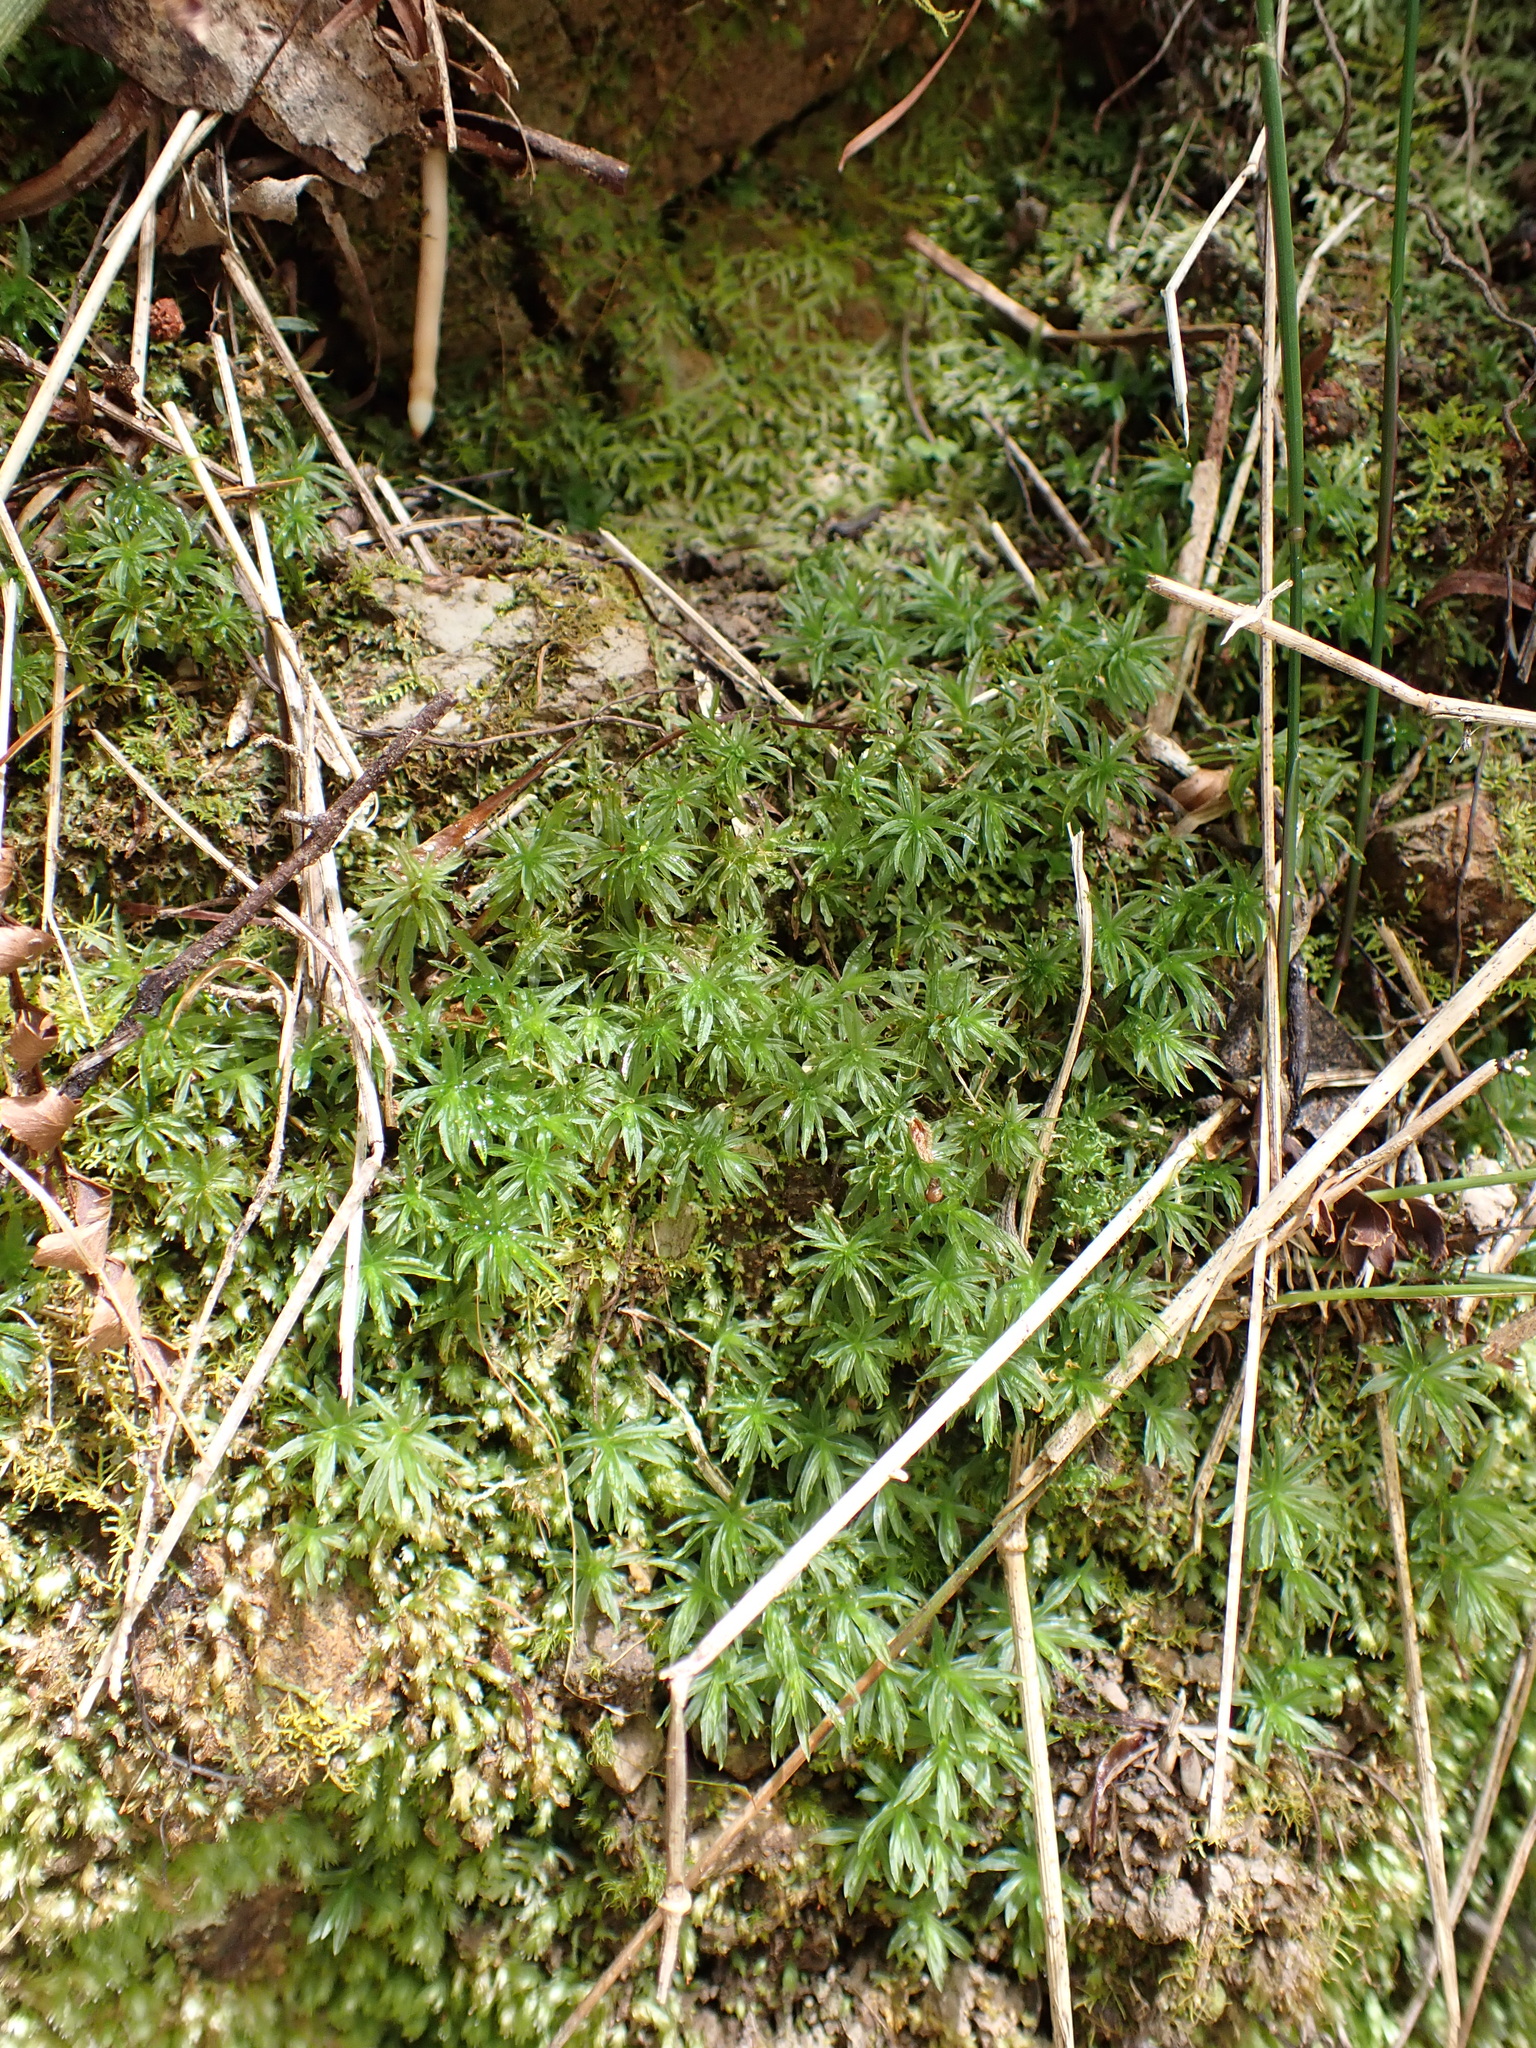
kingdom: Plantae
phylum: Bryophyta
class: Polytrichopsida
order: Polytrichales
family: Polytrichaceae
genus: Atrichum
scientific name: Atrichum androgynum
